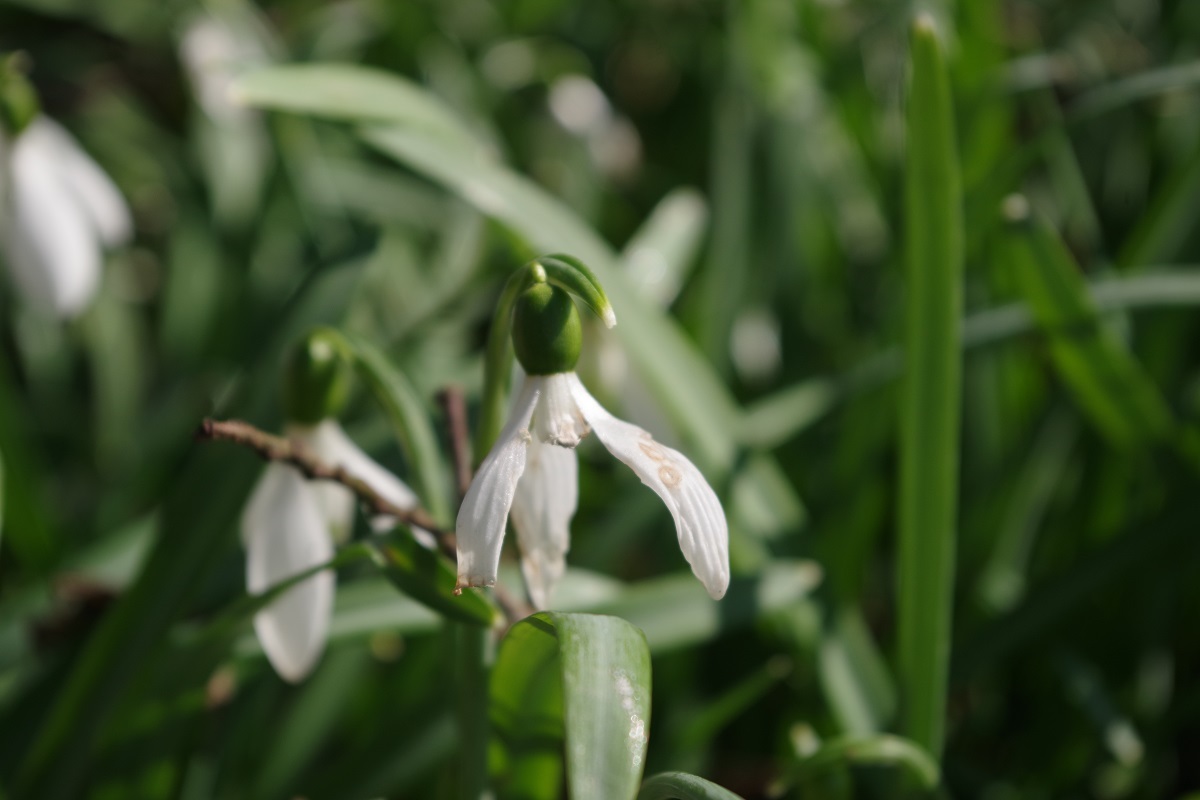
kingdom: Plantae
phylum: Tracheophyta
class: Liliopsida
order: Asparagales
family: Amaryllidaceae
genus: Galanthus
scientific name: Galanthus nivalis
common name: Snowdrop
